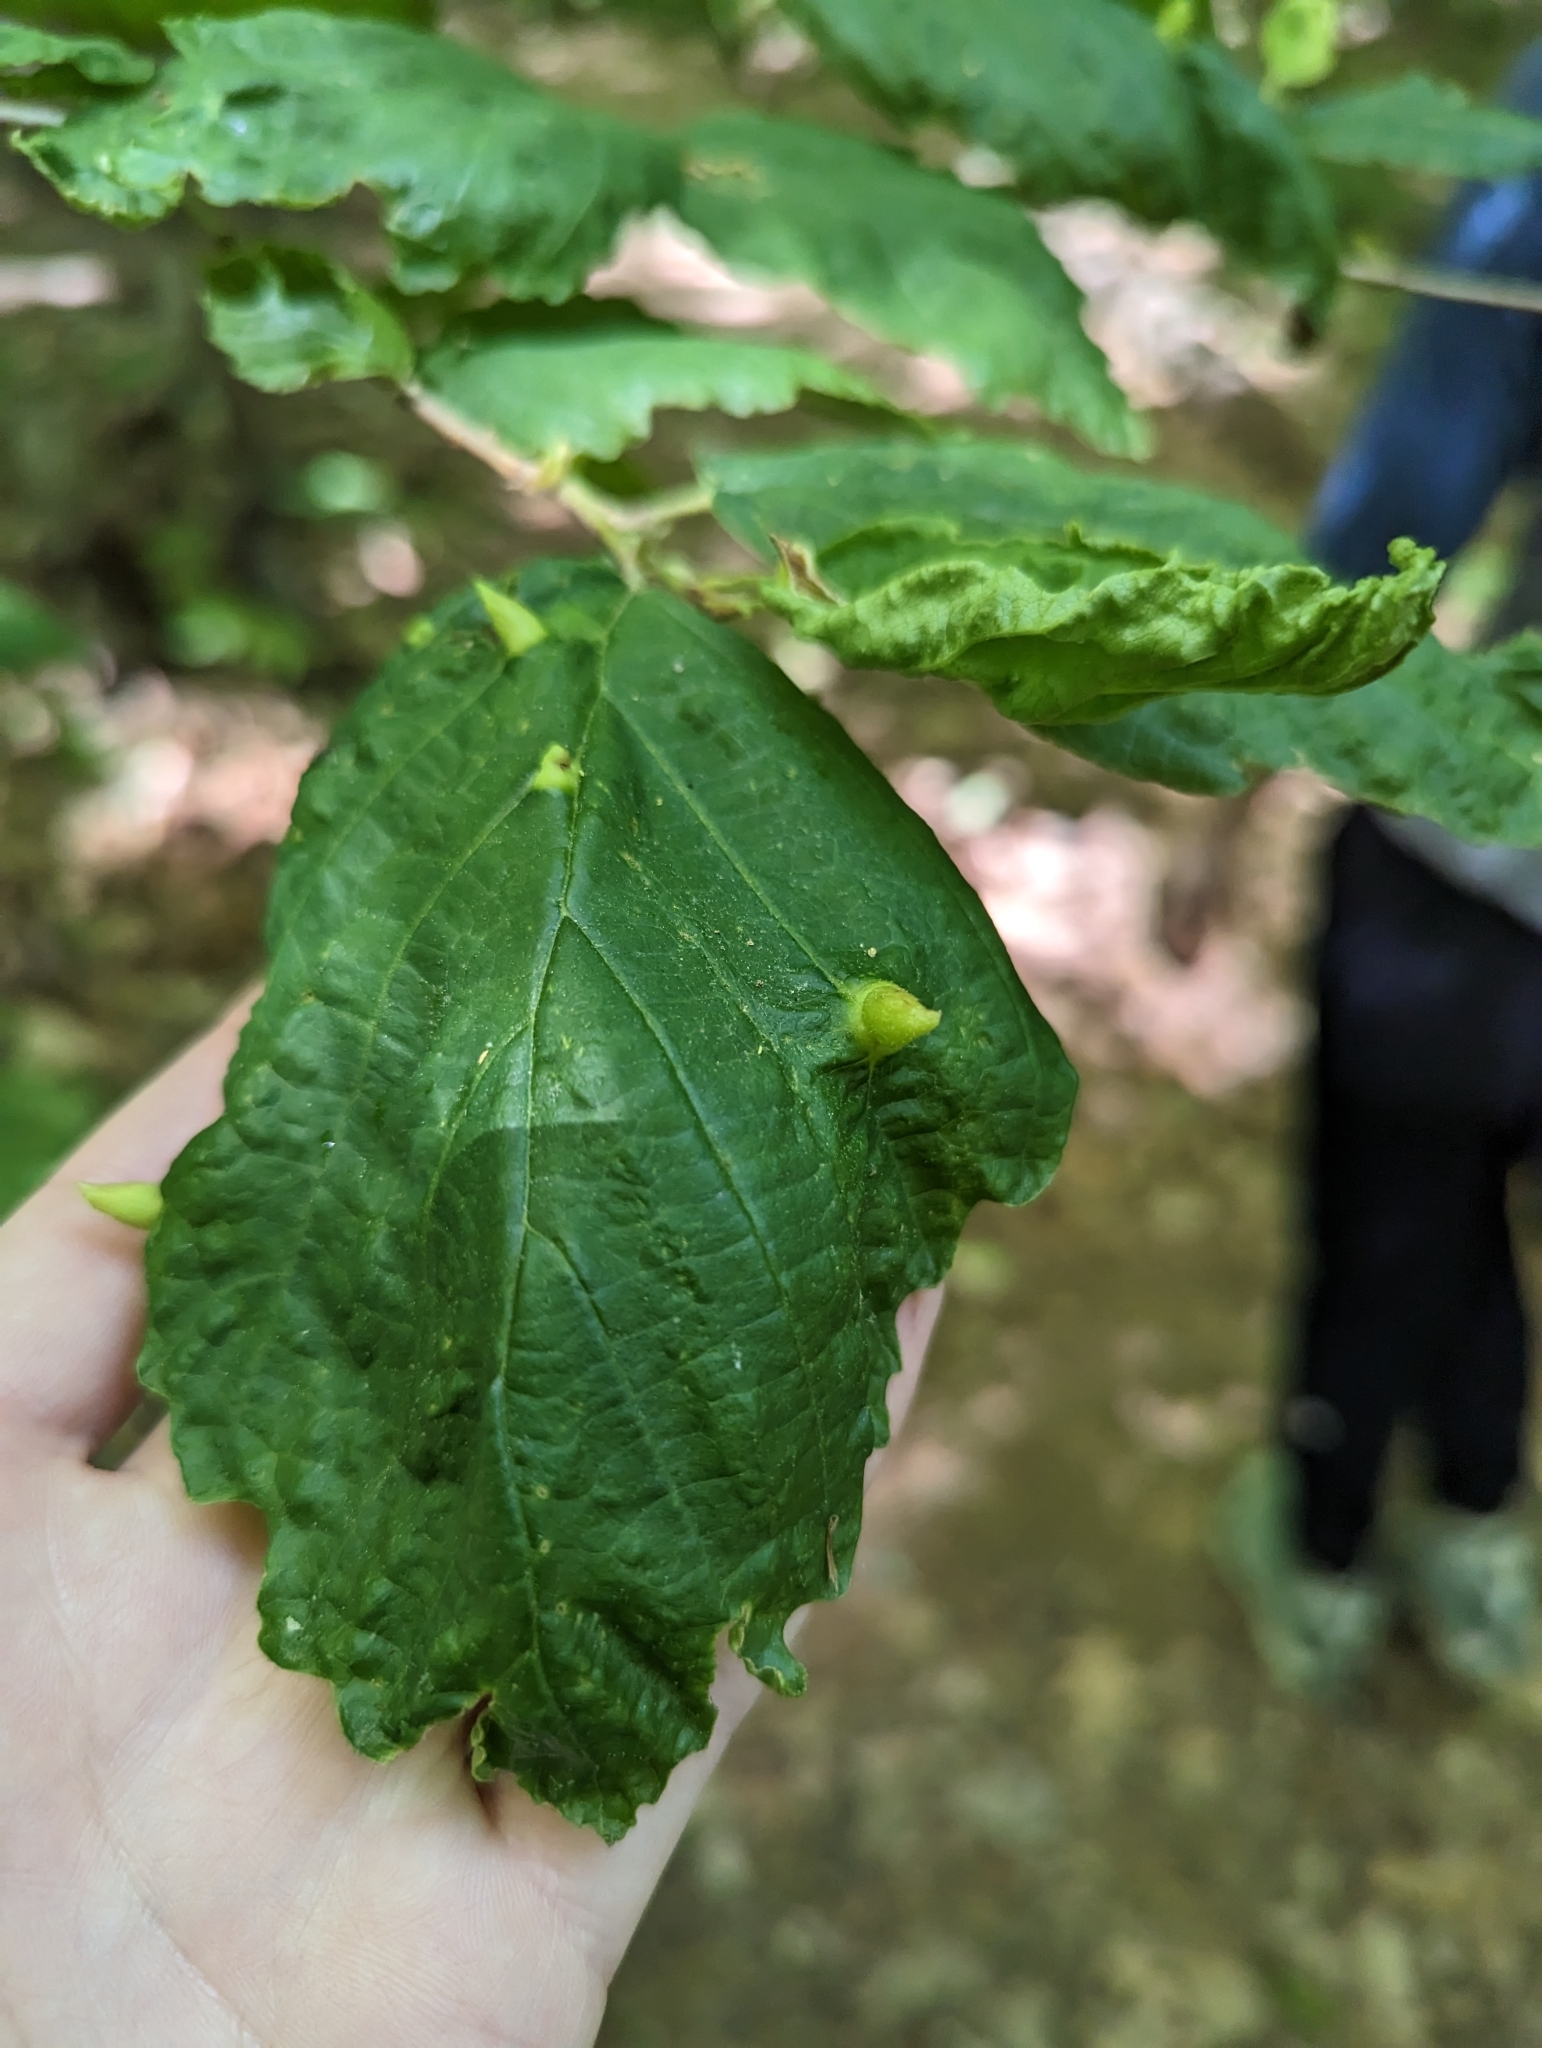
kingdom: Animalia
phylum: Arthropoda
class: Insecta
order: Hemiptera
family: Aphididae
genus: Hormaphis
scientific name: Hormaphis hamamelidis
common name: Witch-hazel cone gall aphid
